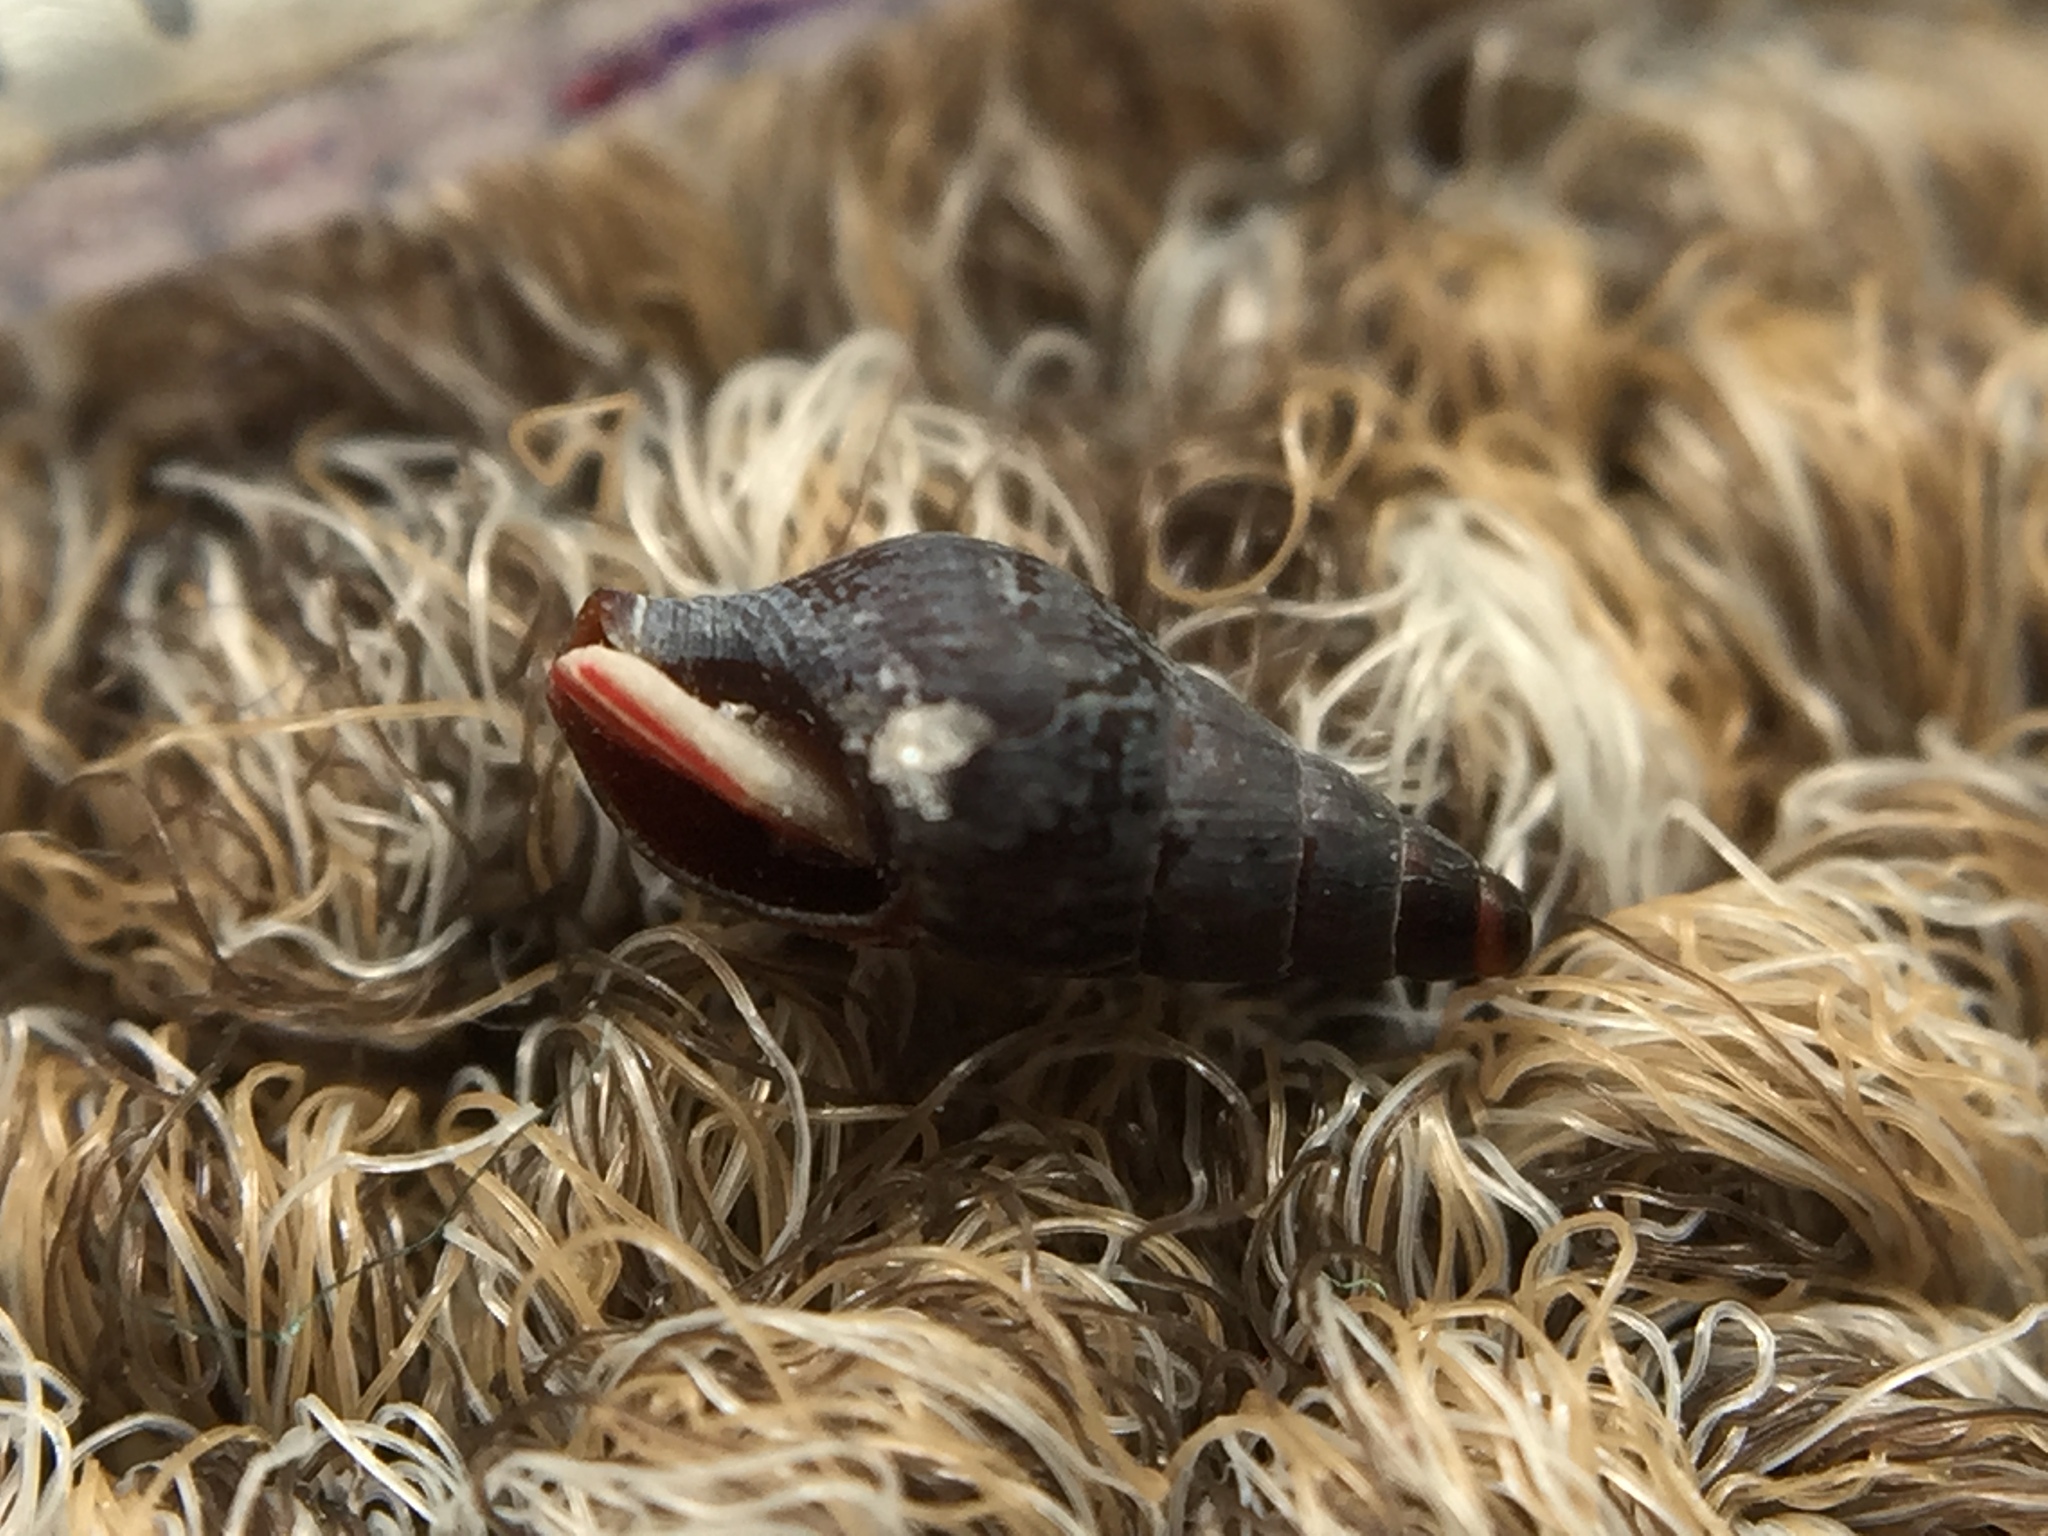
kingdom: Animalia
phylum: Mollusca
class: Gastropoda
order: Neogastropoda
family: Columbellidae
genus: Paxula
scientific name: Paxula paxillus
